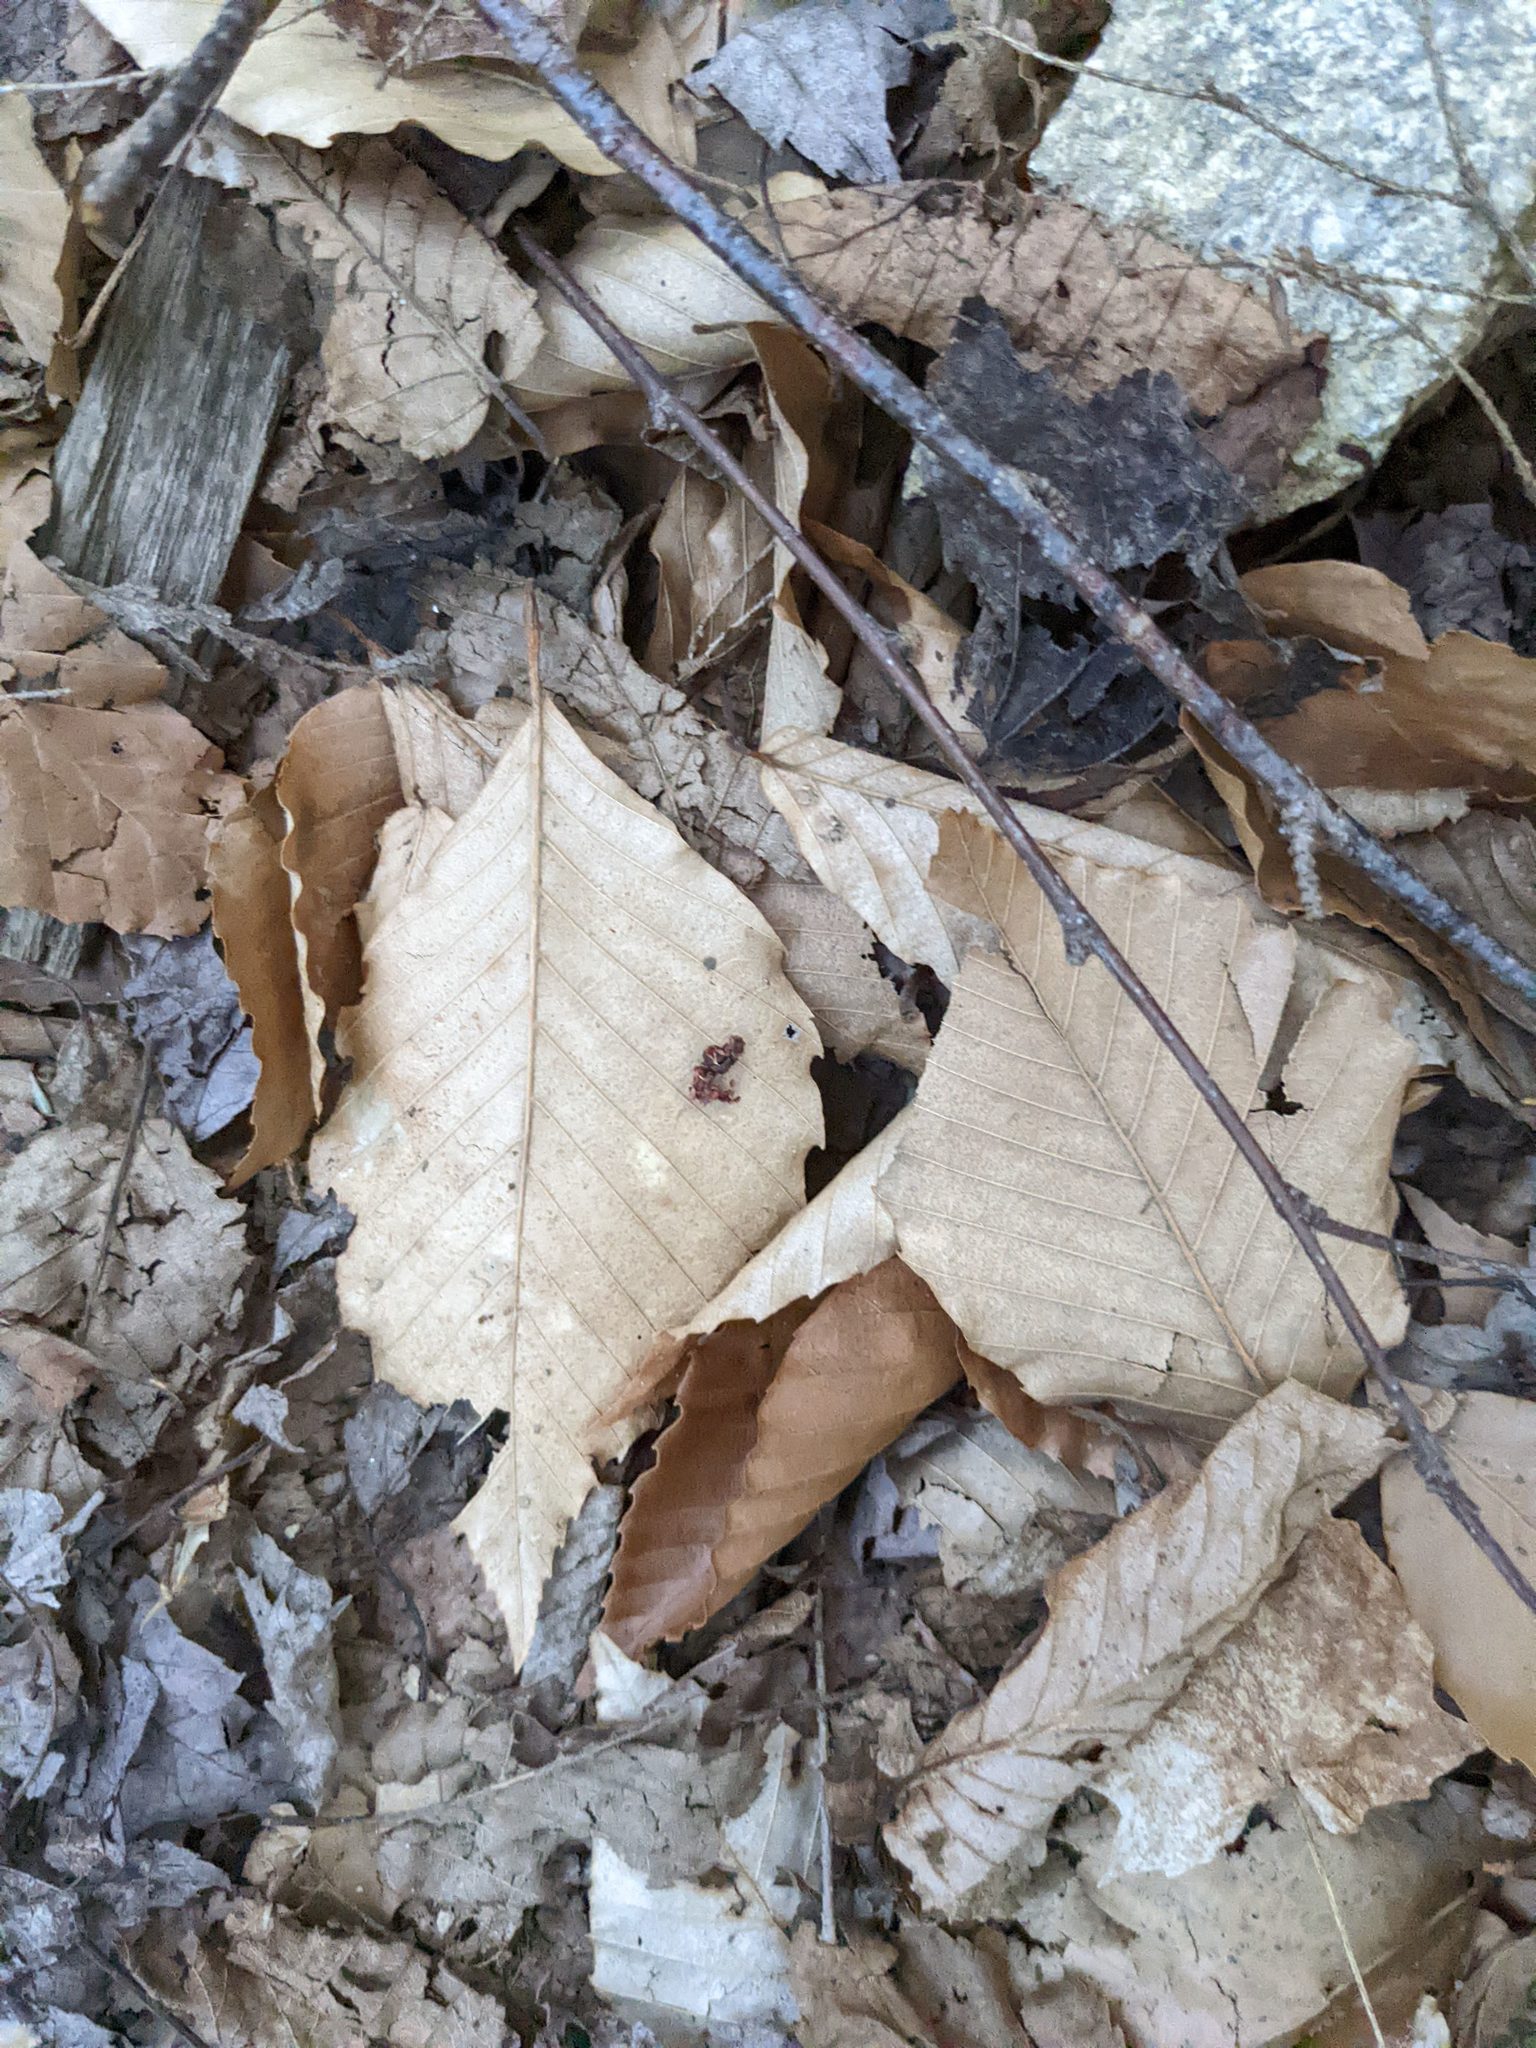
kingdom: Plantae
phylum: Tracheophyta
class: Magnoliopsida
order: Fagales
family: Fagaceae
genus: Fagus
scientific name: Fagus grandifolia
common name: American beech
